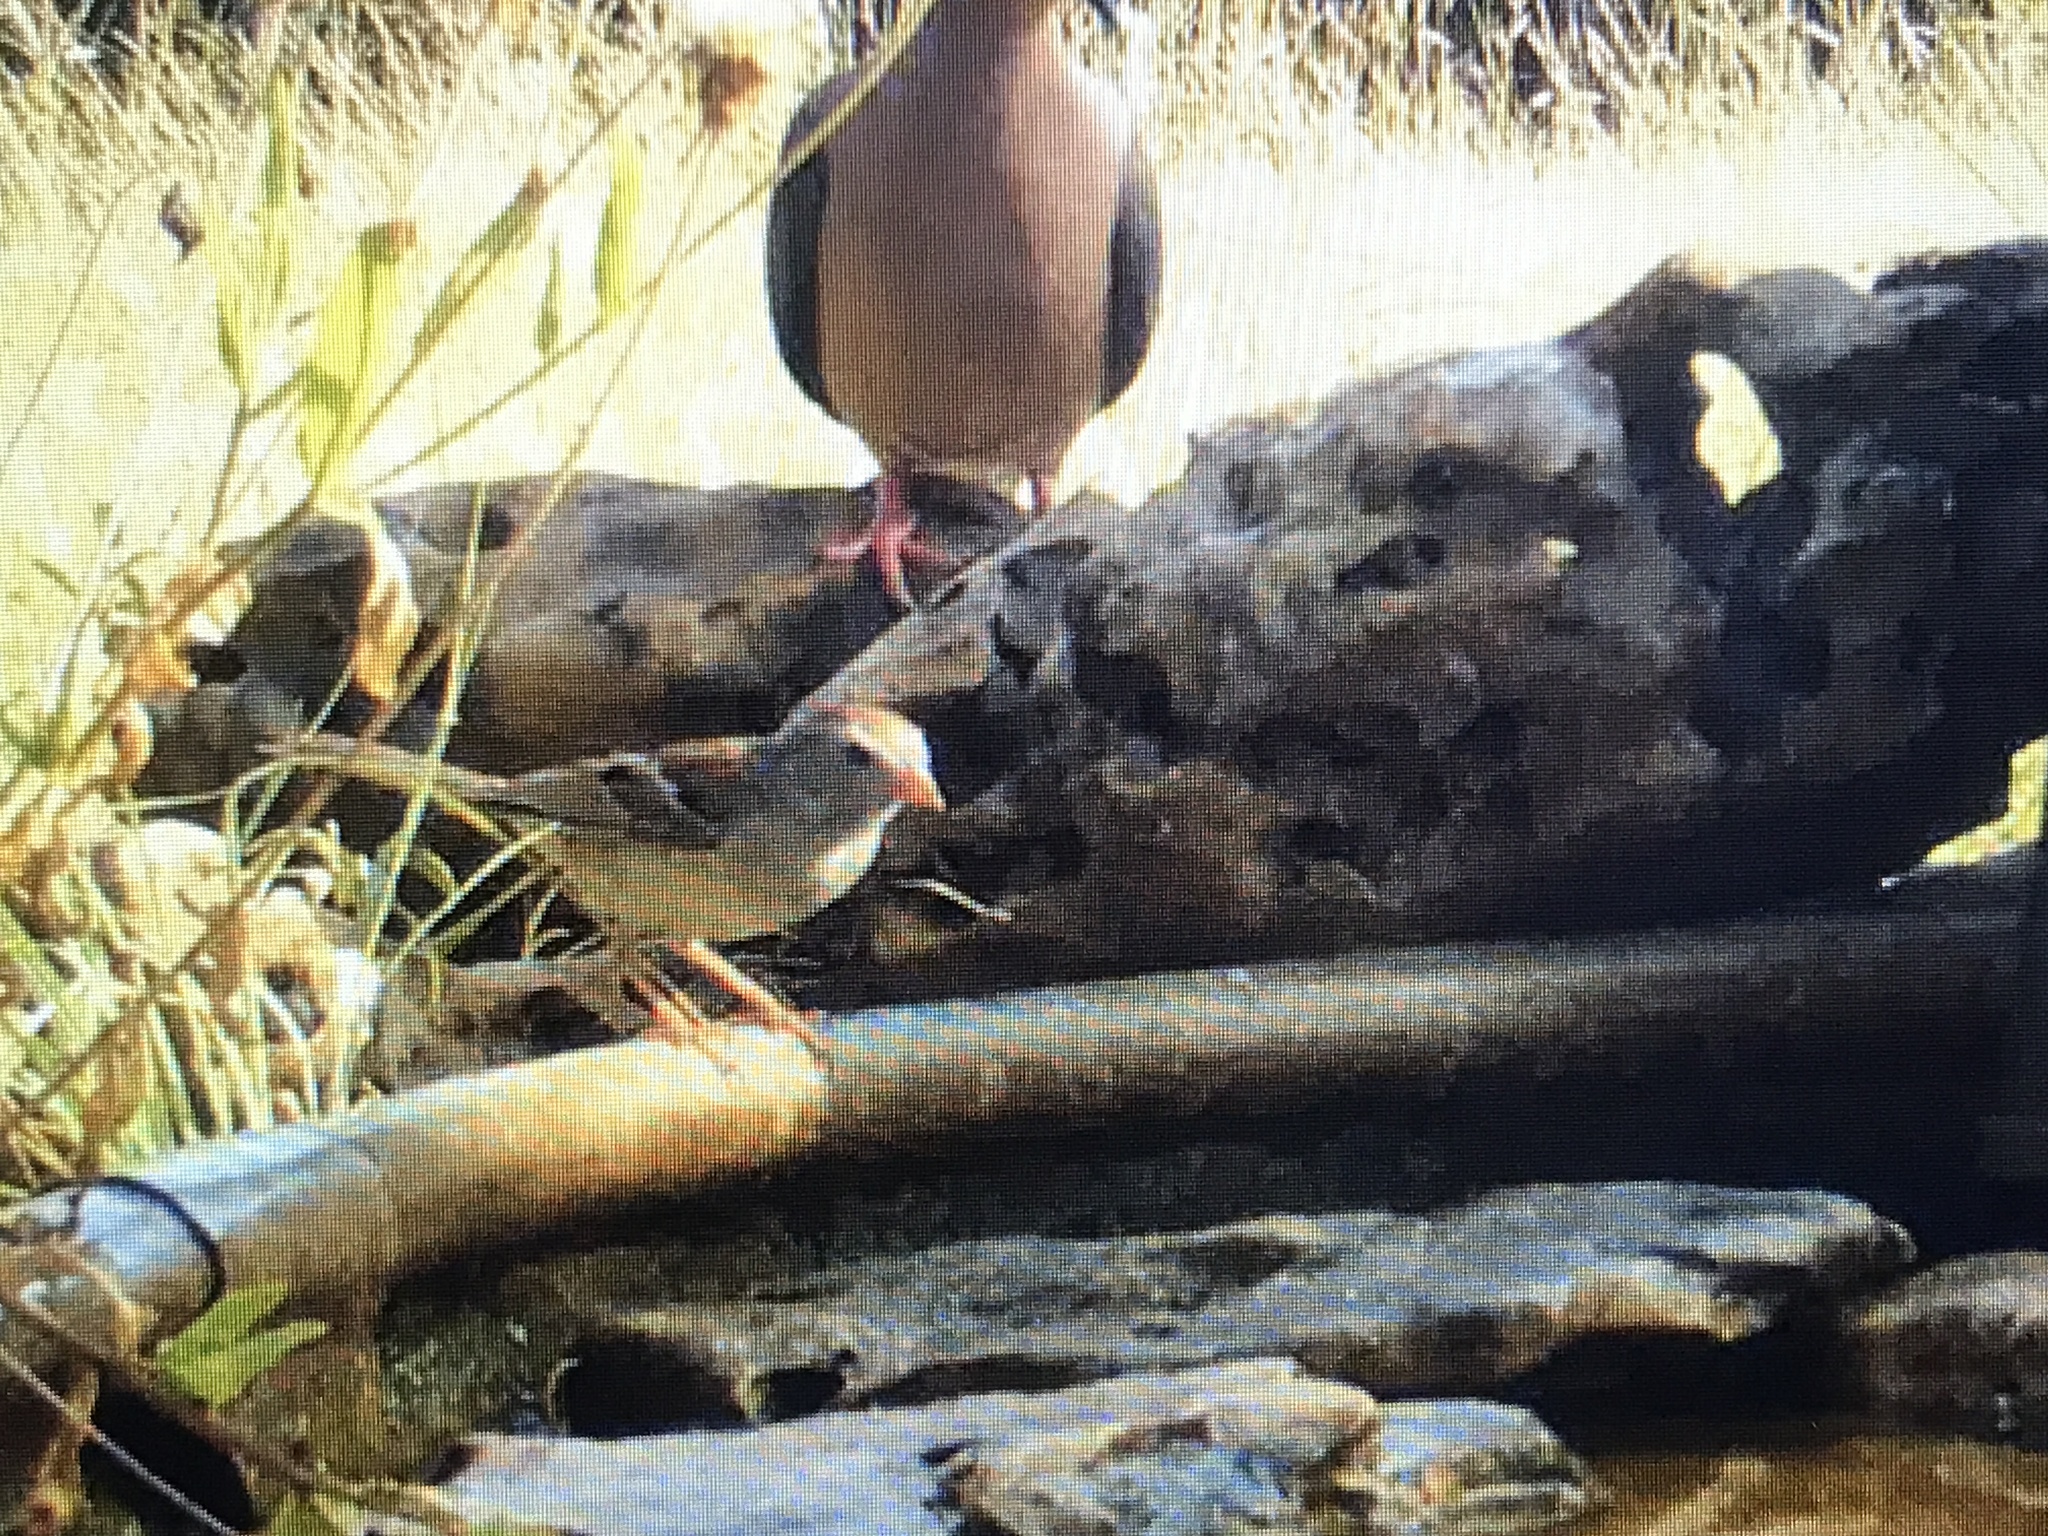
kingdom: Animalia
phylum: Chordata
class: Aves
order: Passeriformes
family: Passerellidae
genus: Spizella
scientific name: Spizella pusilla
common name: Field sparrow
